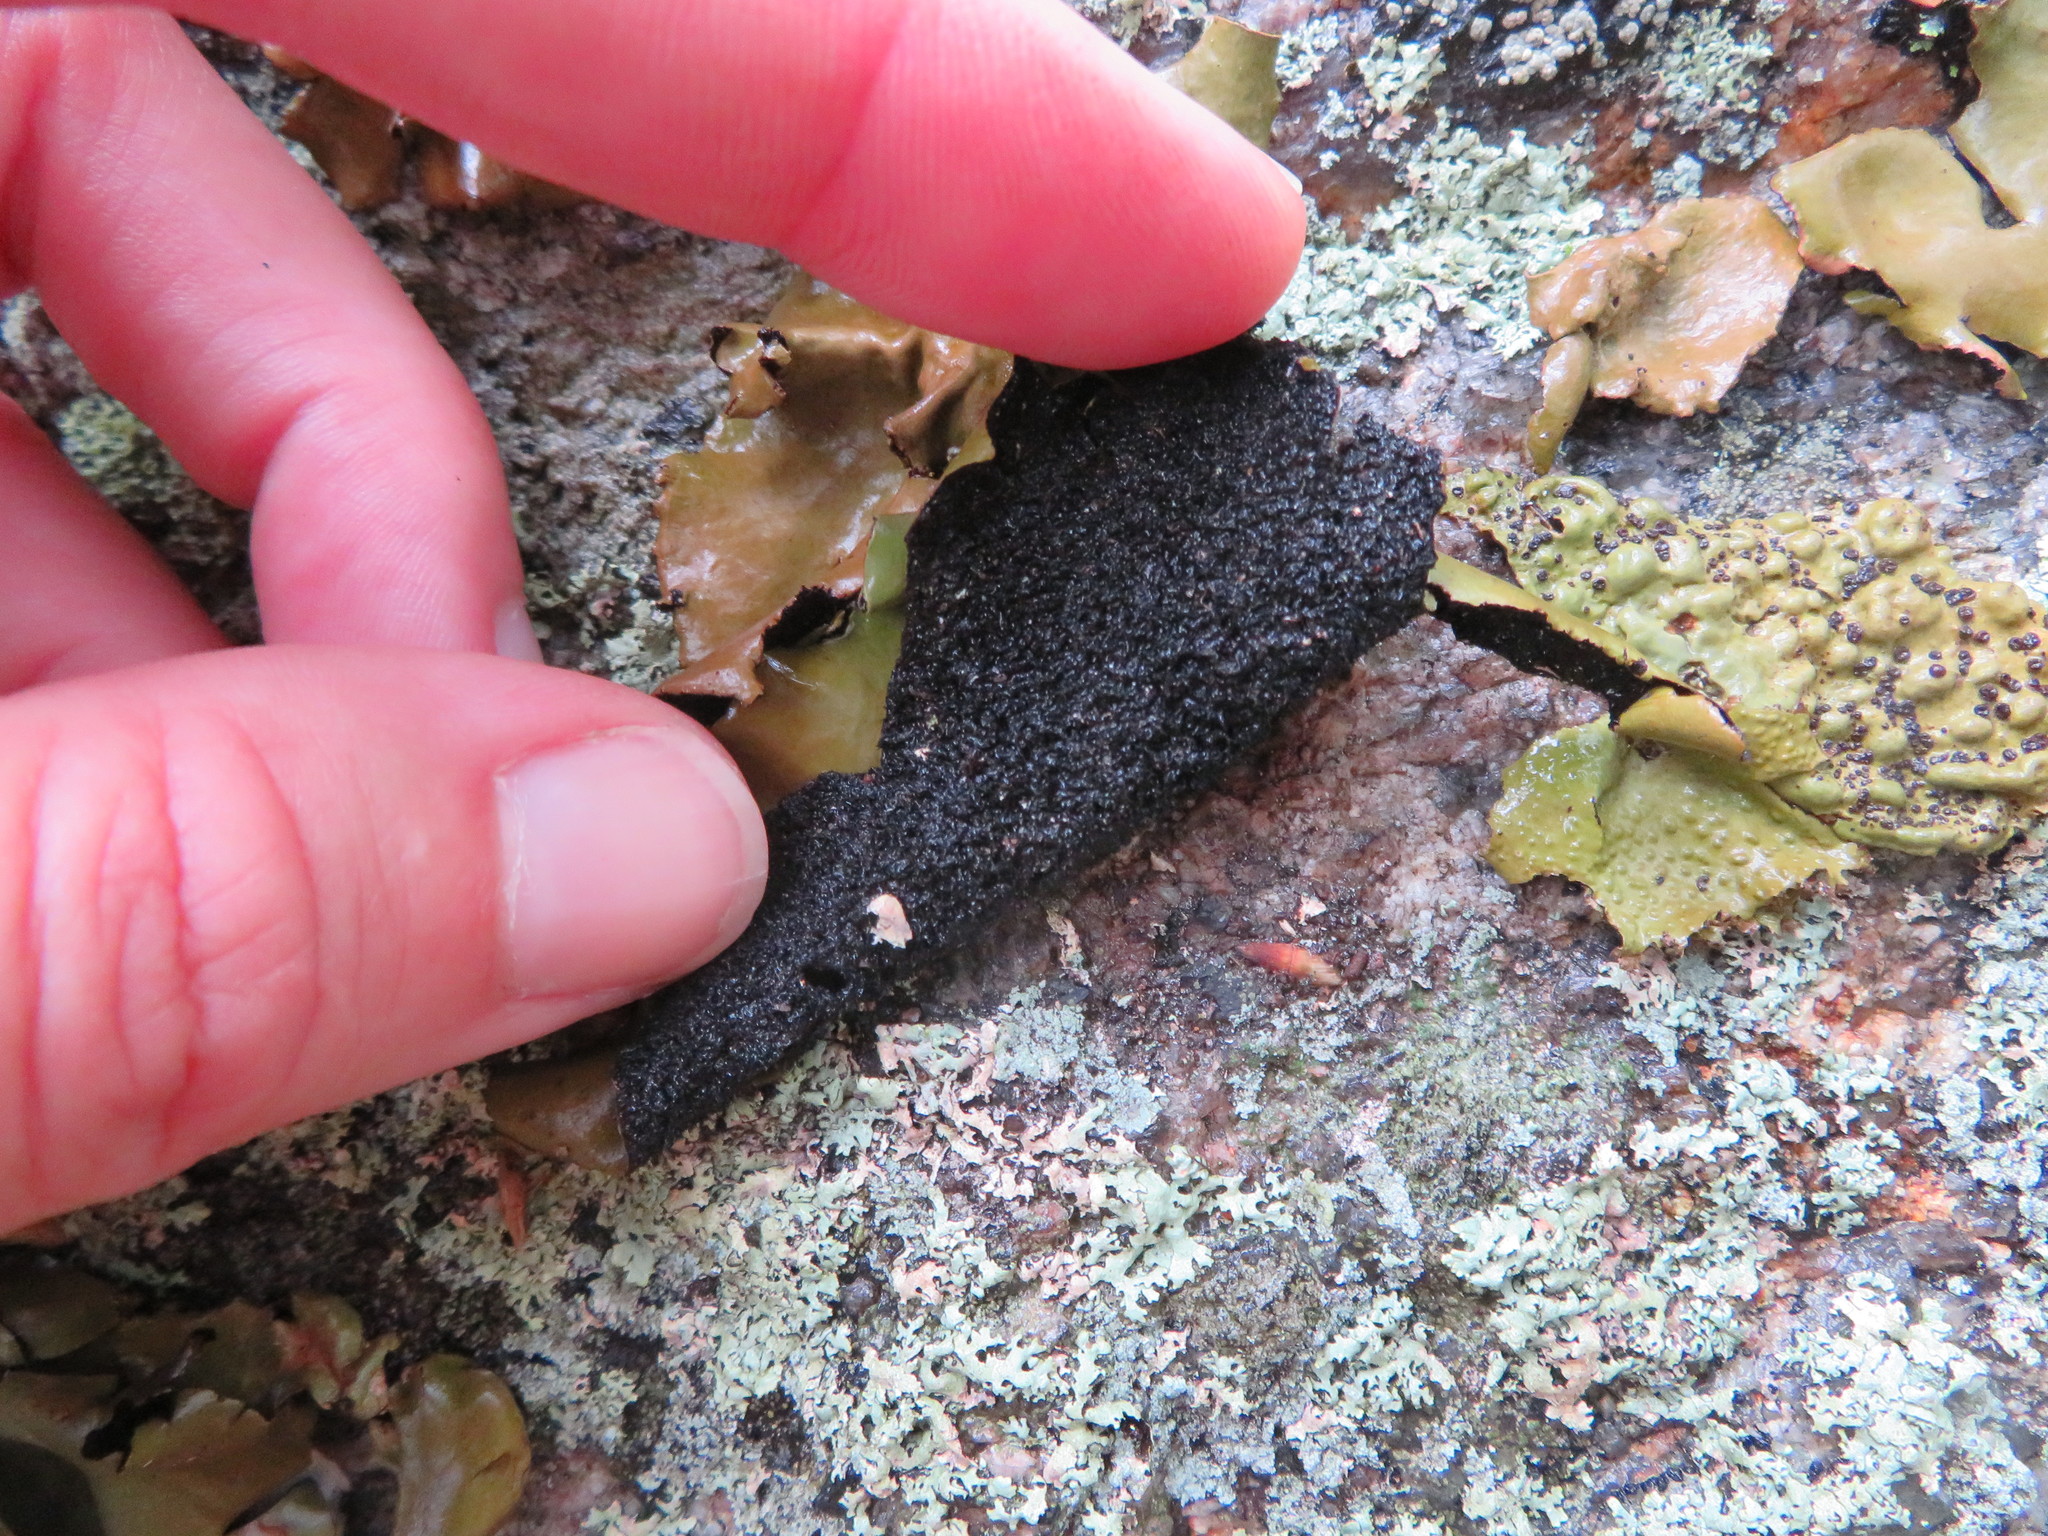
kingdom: Fungi
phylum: Ascomycota
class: Lecanoromycetes
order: Umbilicariales
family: Umbilicariaceae
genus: Umbilicaria
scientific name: Umbilicaria mammulata
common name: Smooth rock tripe
